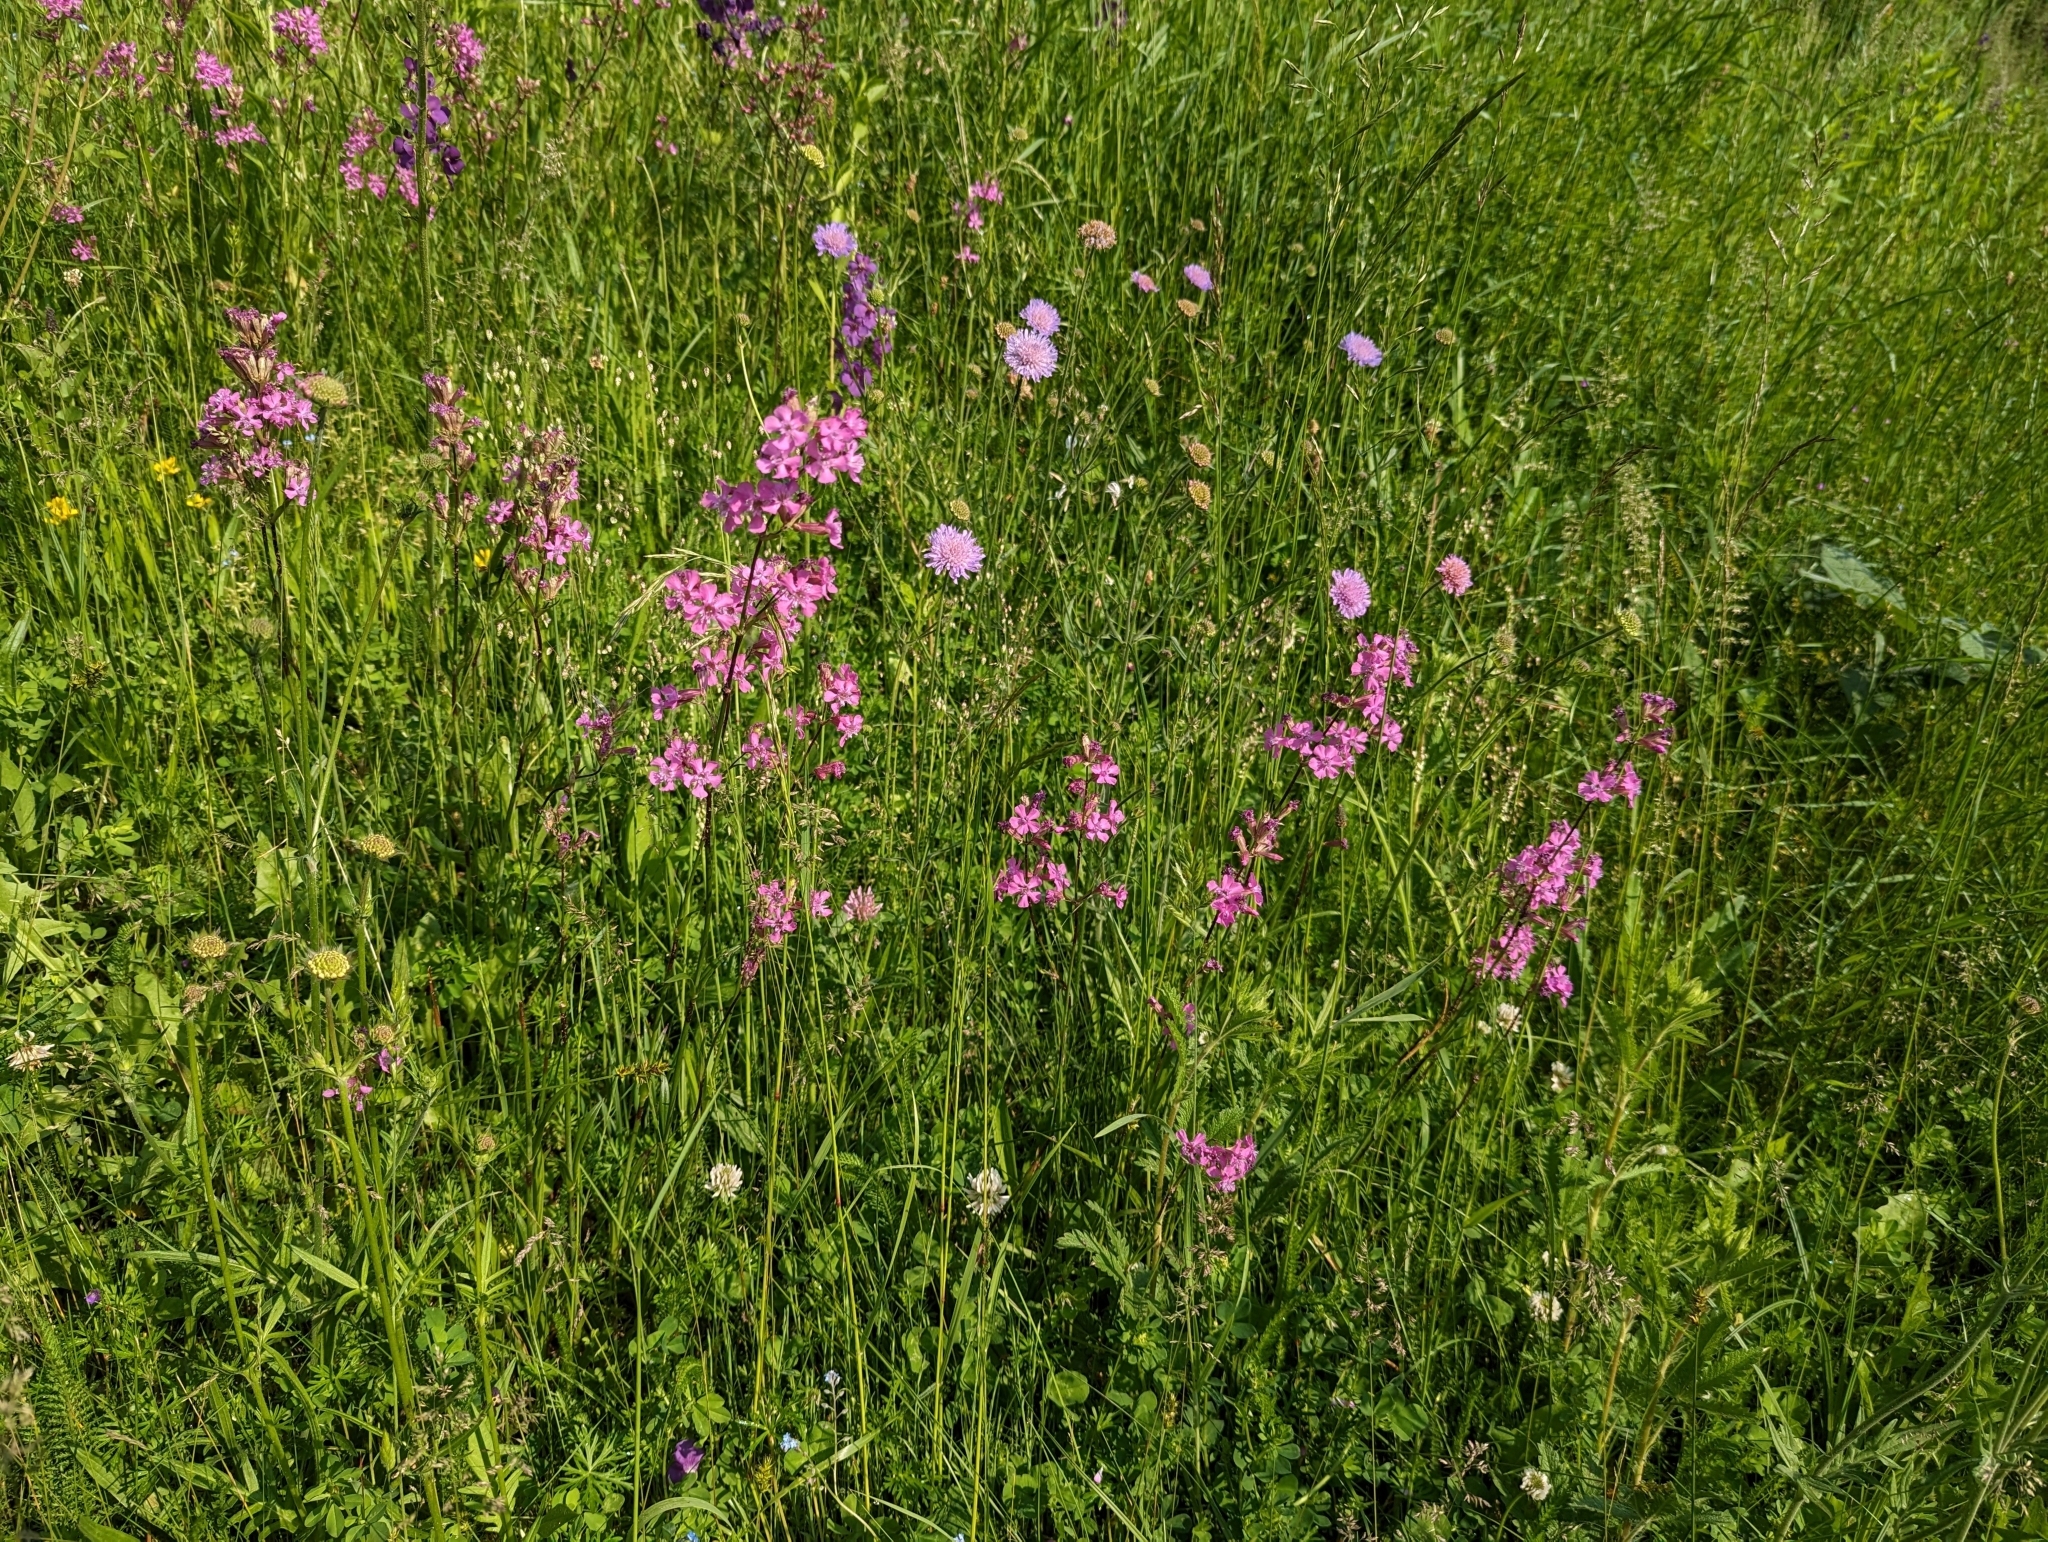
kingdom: Plantae
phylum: Tracheophyta
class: Magnoliopsida
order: Caryophyllales
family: Caryophyllaceae
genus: Viscaria
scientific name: Viscaria vulgaris
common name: Clammy campion
